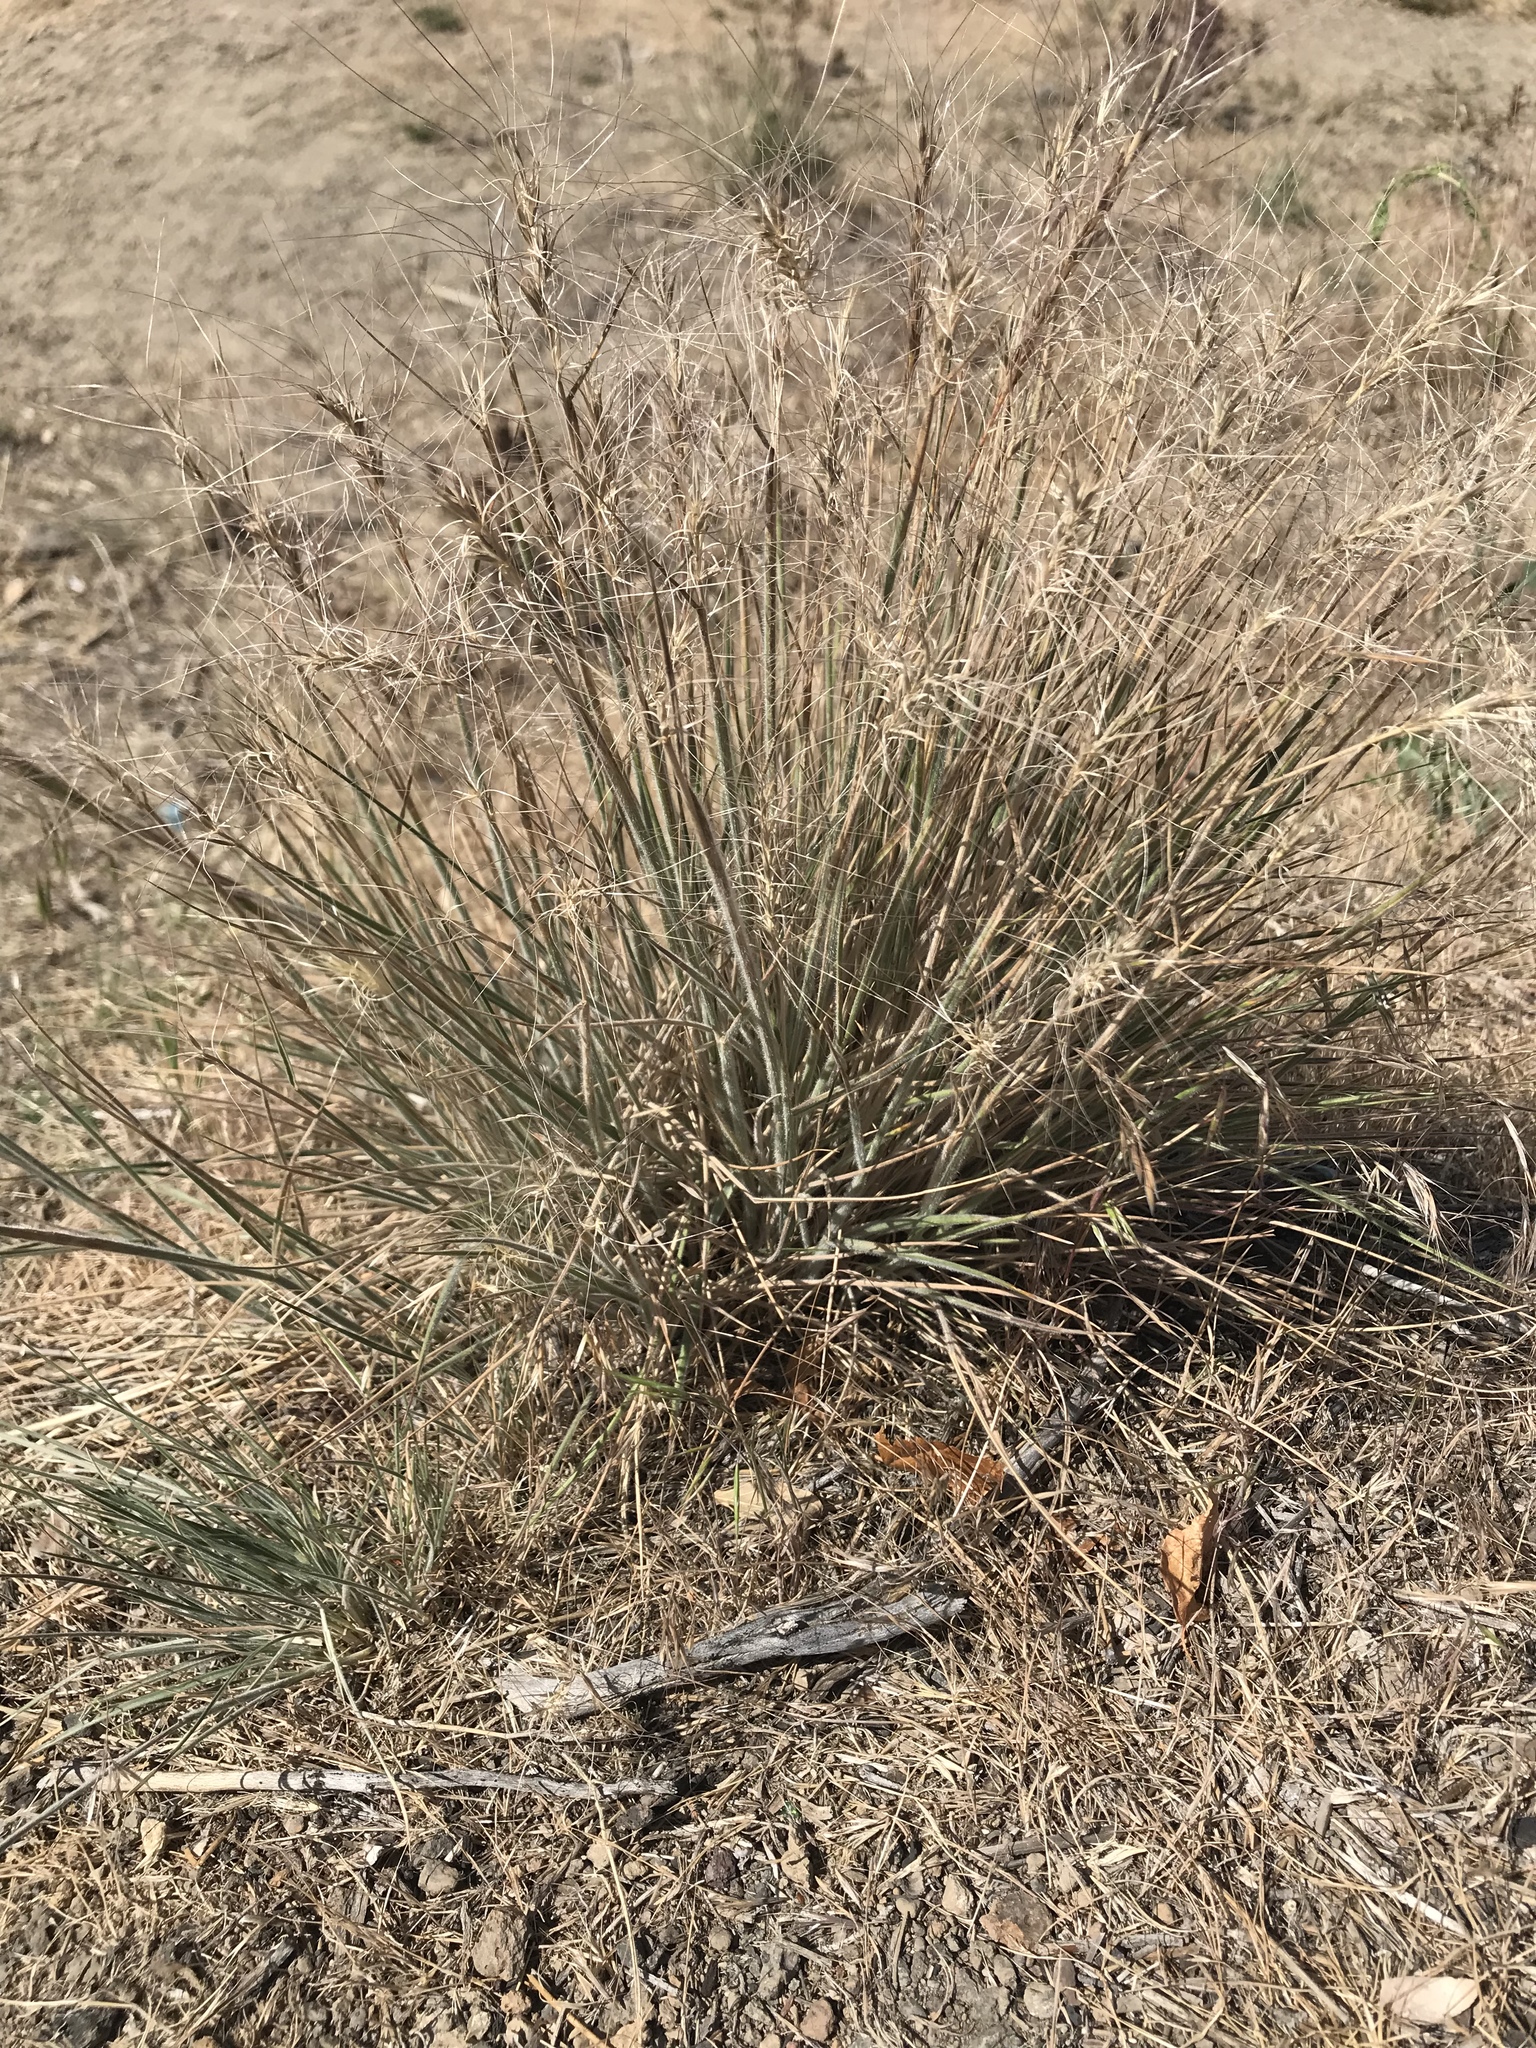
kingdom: Plantae
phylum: Tracheophyta
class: Liliopsida
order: Poales
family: Poaceae
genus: Elymus
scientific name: Elymus elymoides
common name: Bottlebrush squirreltail
